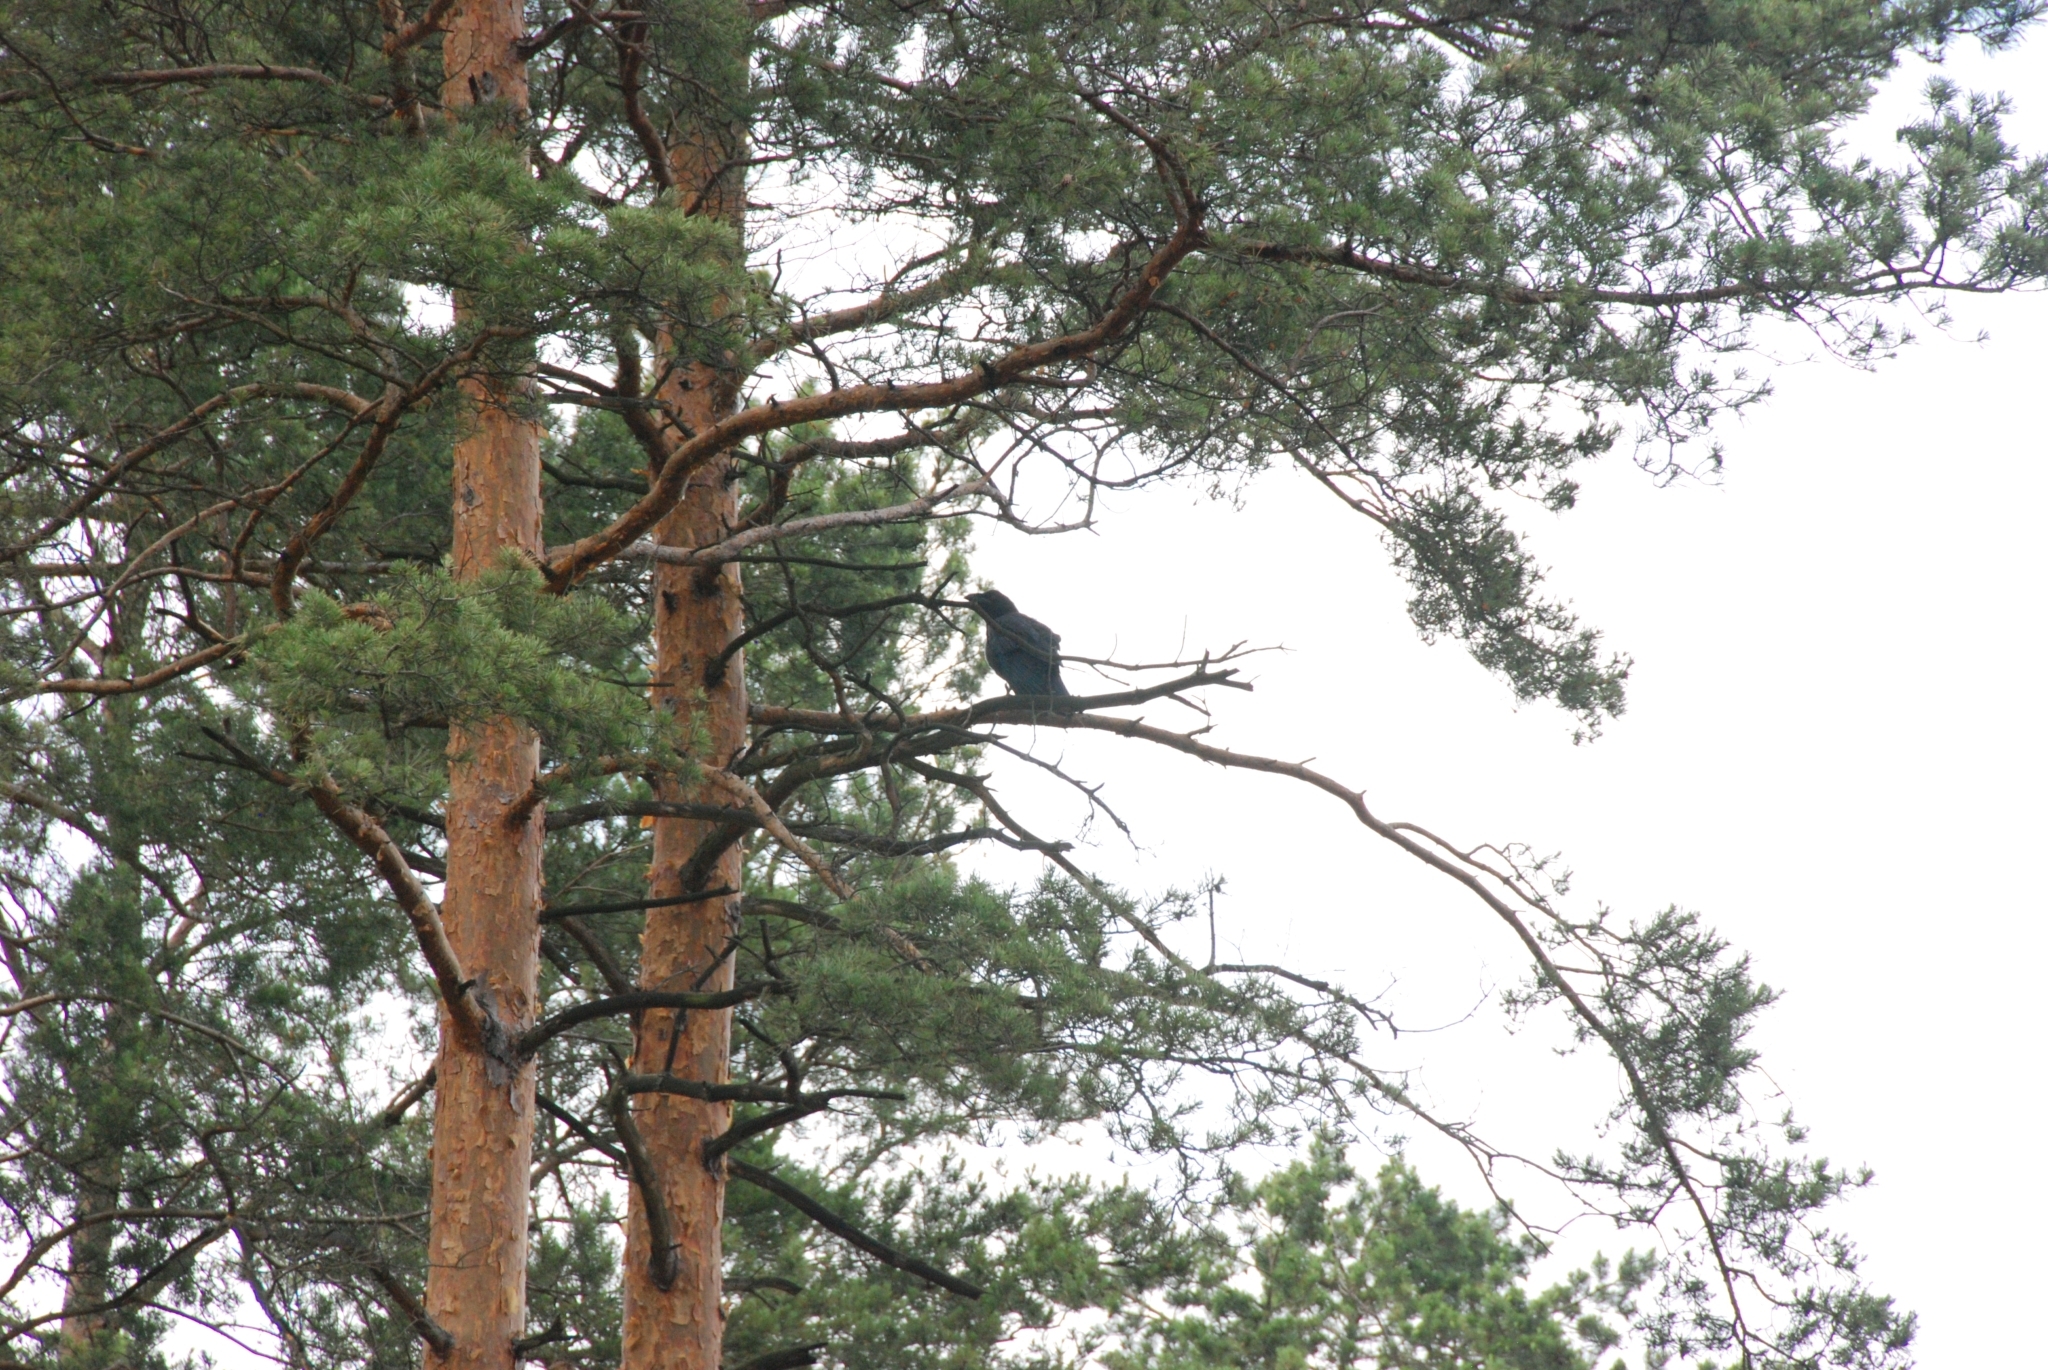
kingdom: Animalia
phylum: Chordata
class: Aves
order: Passeriformes
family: Corvidae
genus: Corvus
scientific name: Corvus corax
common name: Common raven
